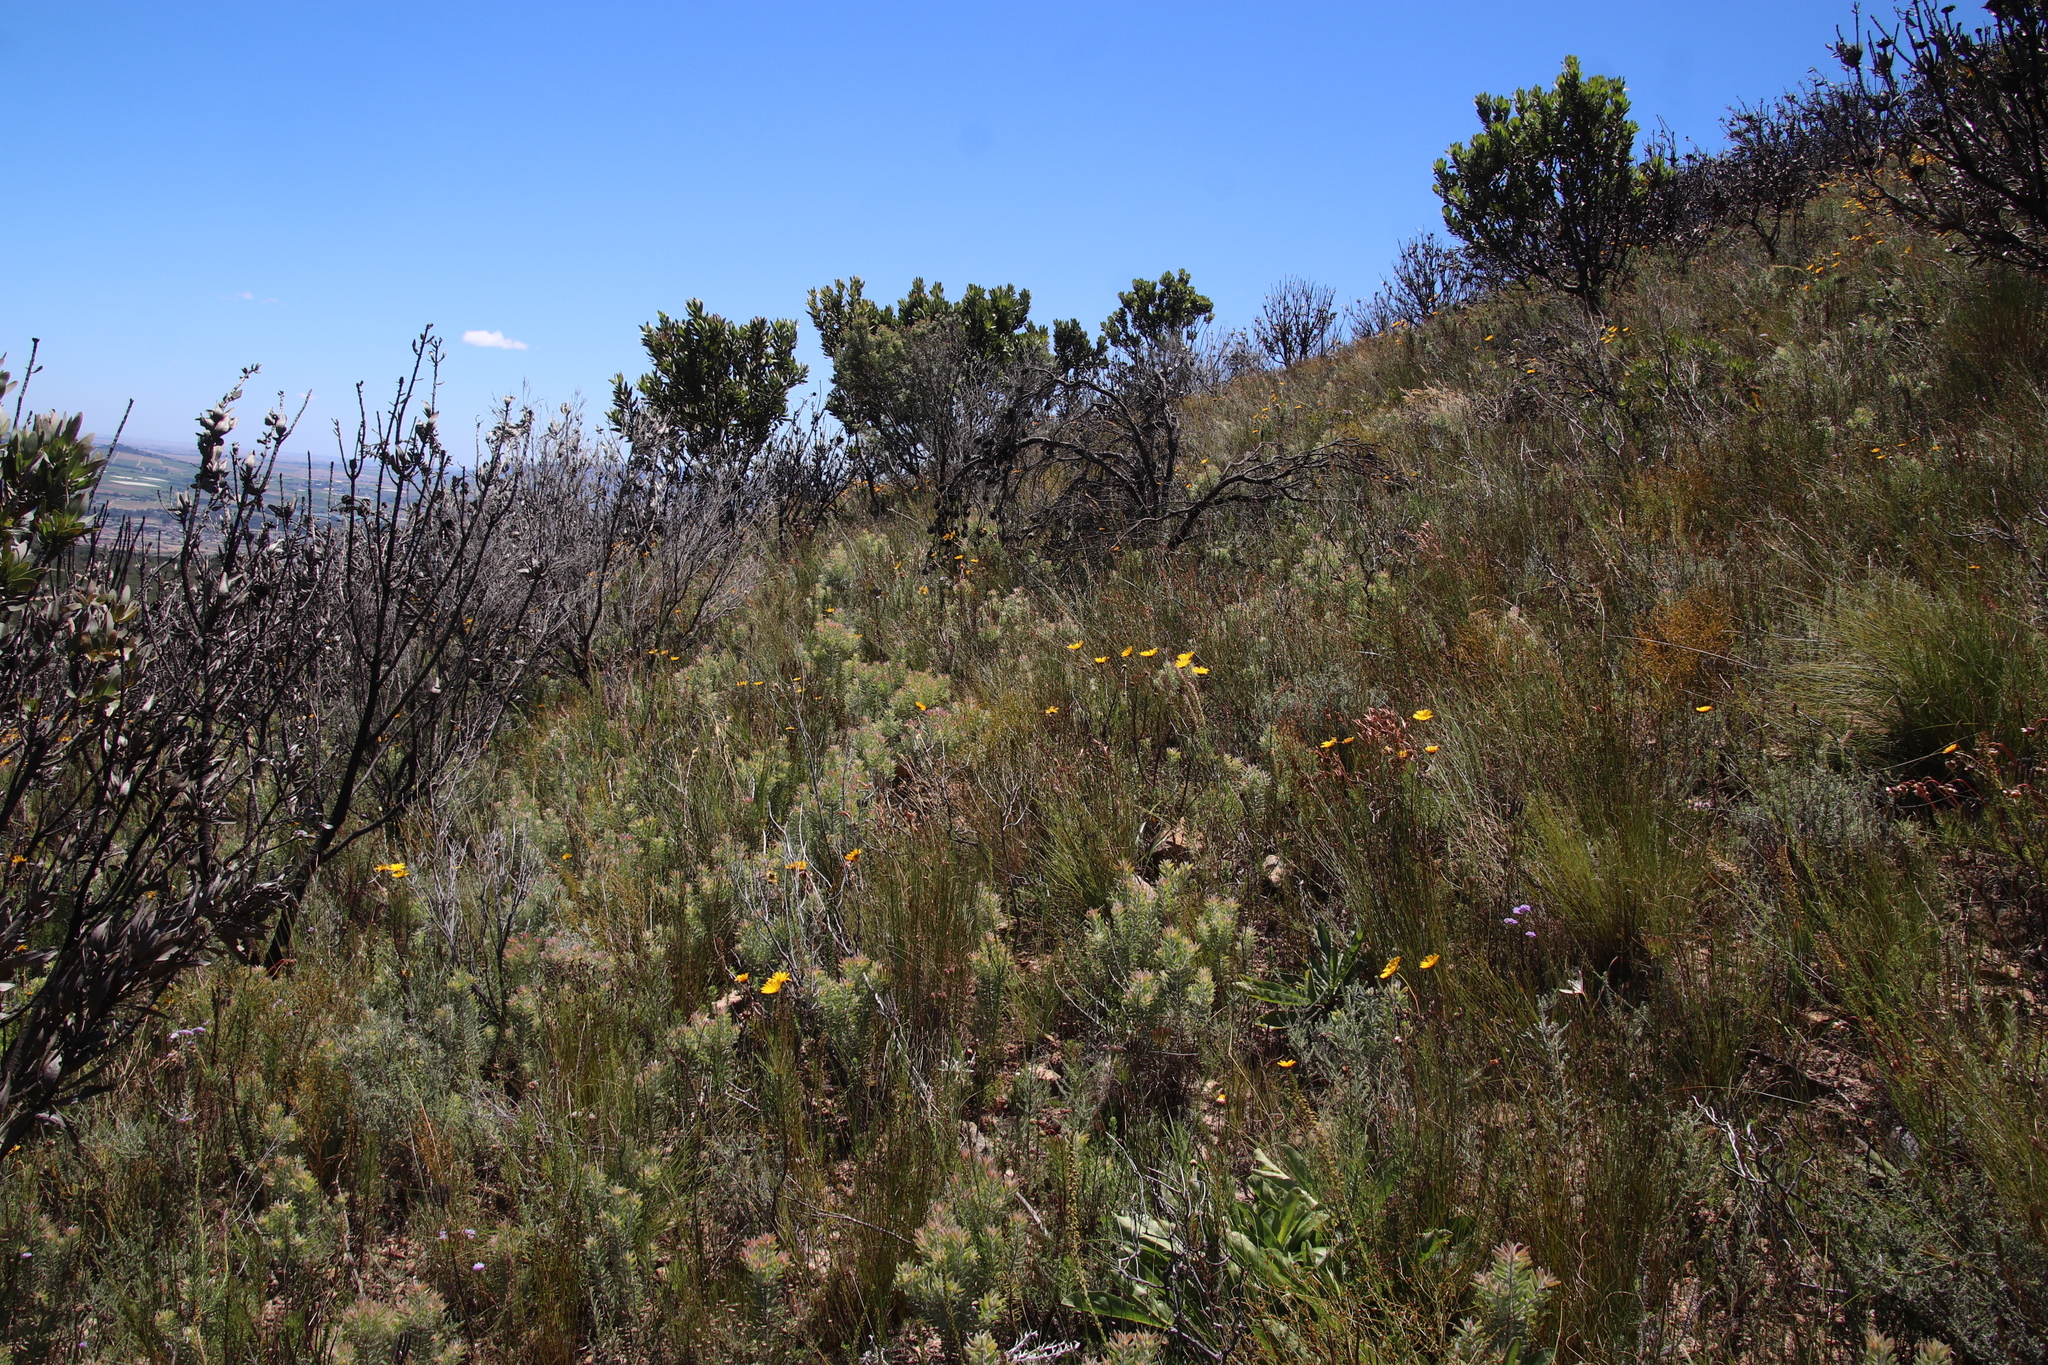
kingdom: Plantae
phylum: Tracheophyta
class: Magnoliopsida
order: Proteales
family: Proteaceae
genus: Leucadendron
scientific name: Leucadendron rubrum
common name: Spinning top
